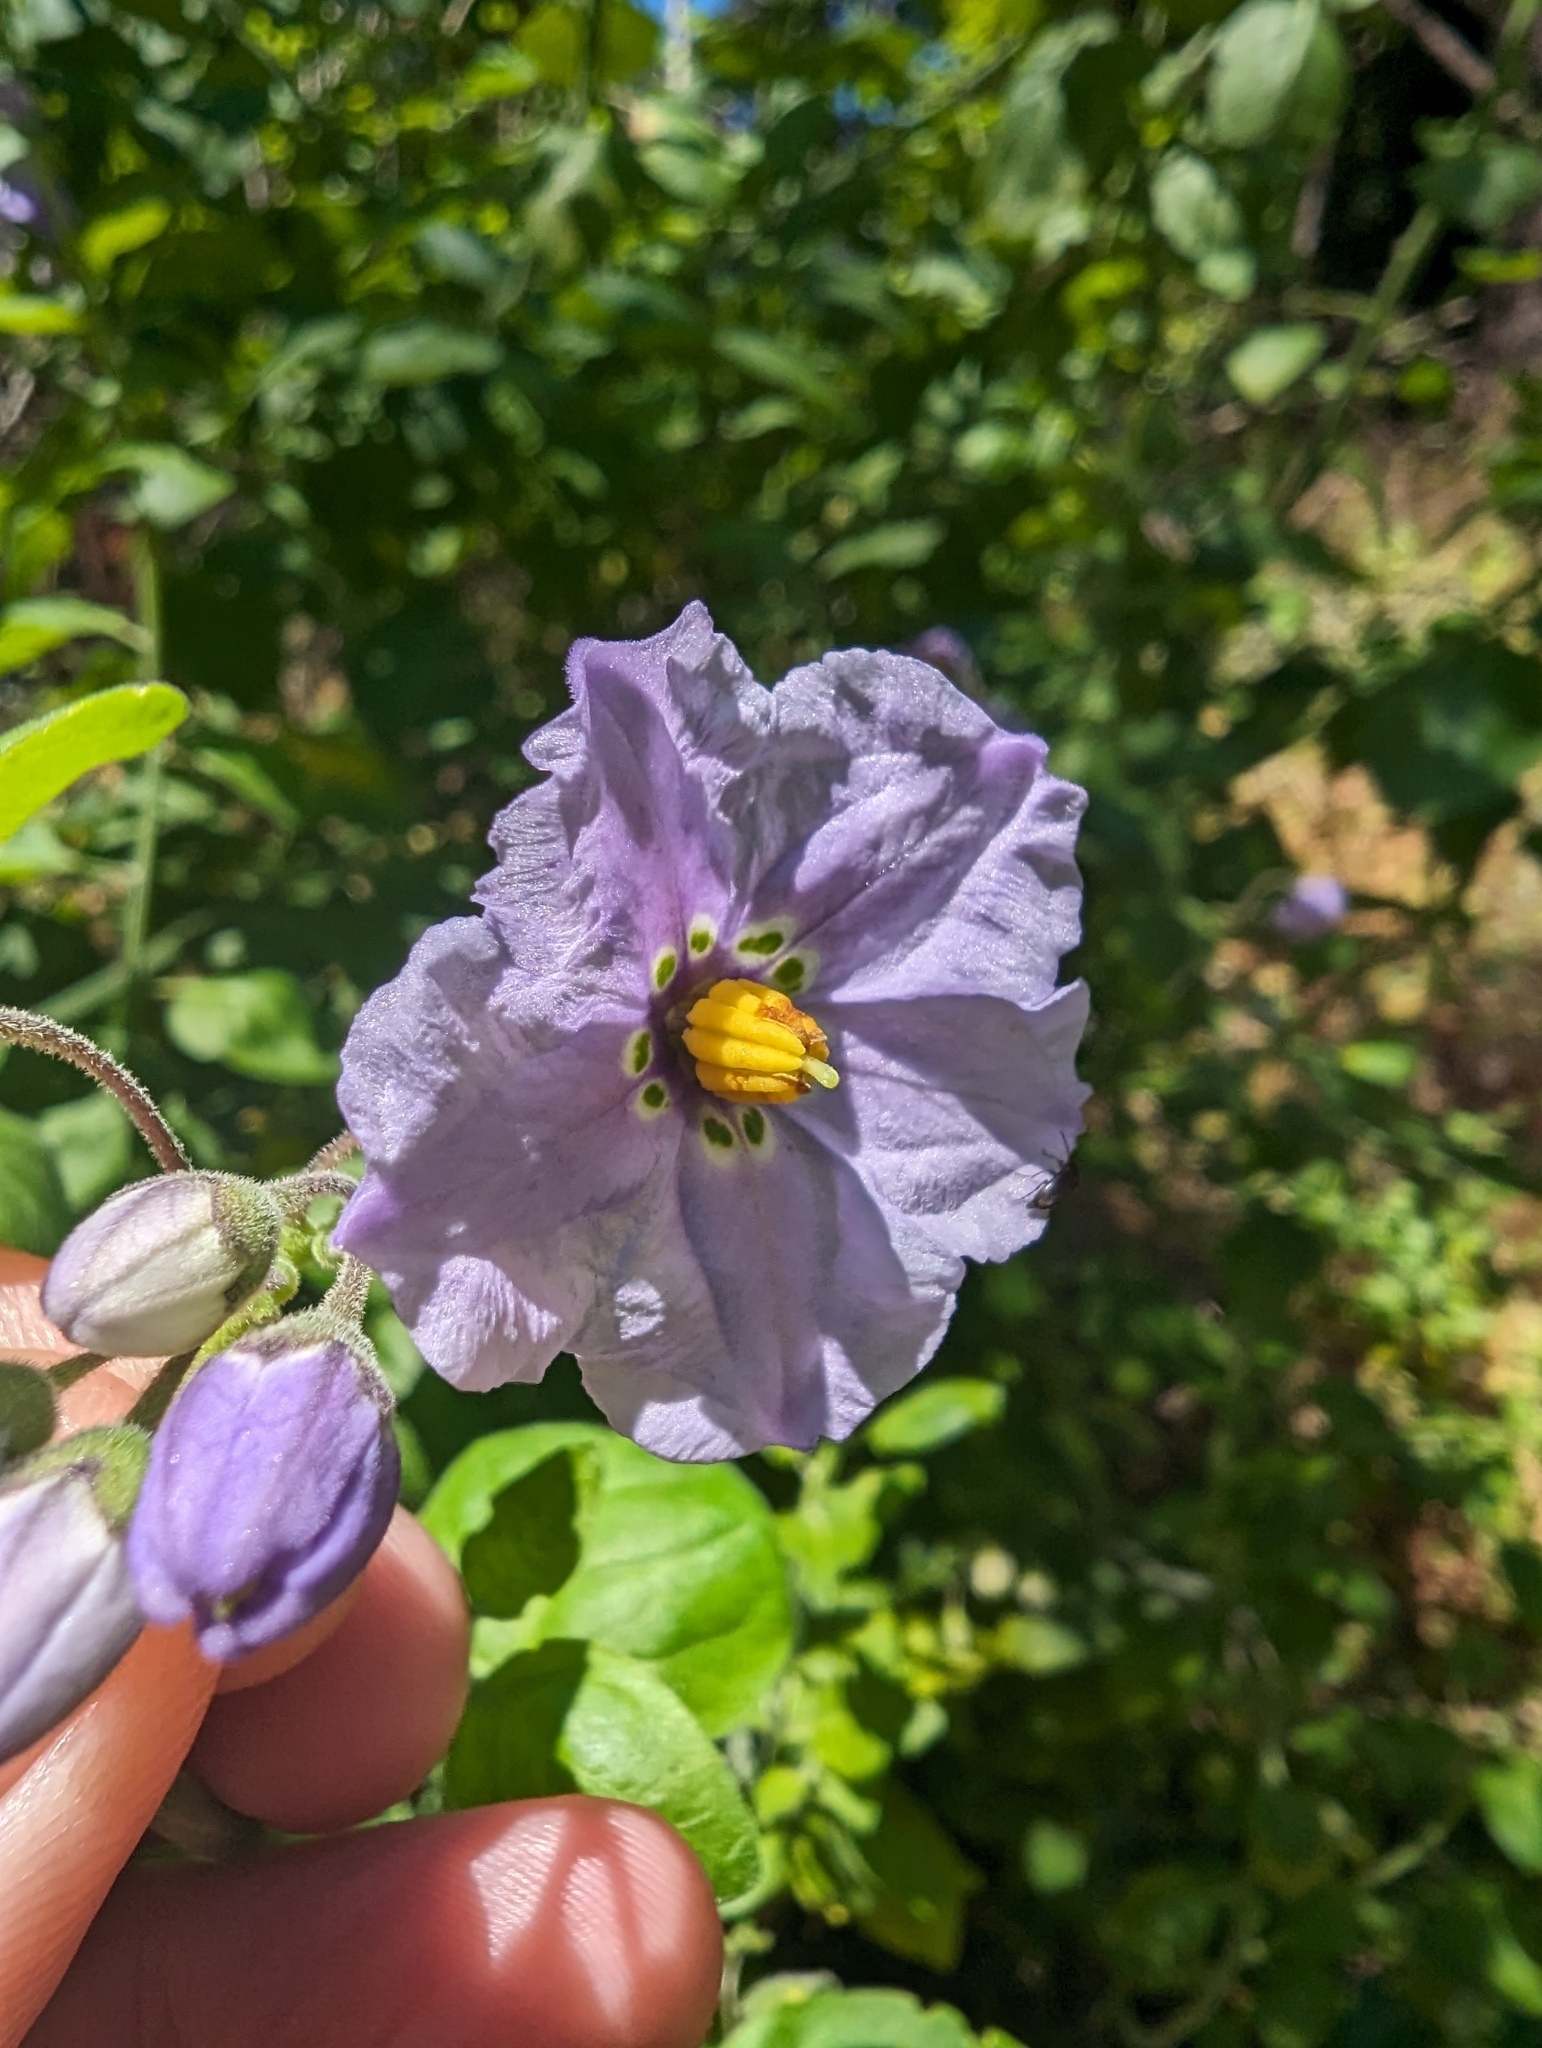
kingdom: Plantae
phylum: Tracheophyta
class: Magnoliopsida
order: Solanales
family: Solanaceae
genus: Solanum
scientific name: Solanum umbelliferum
